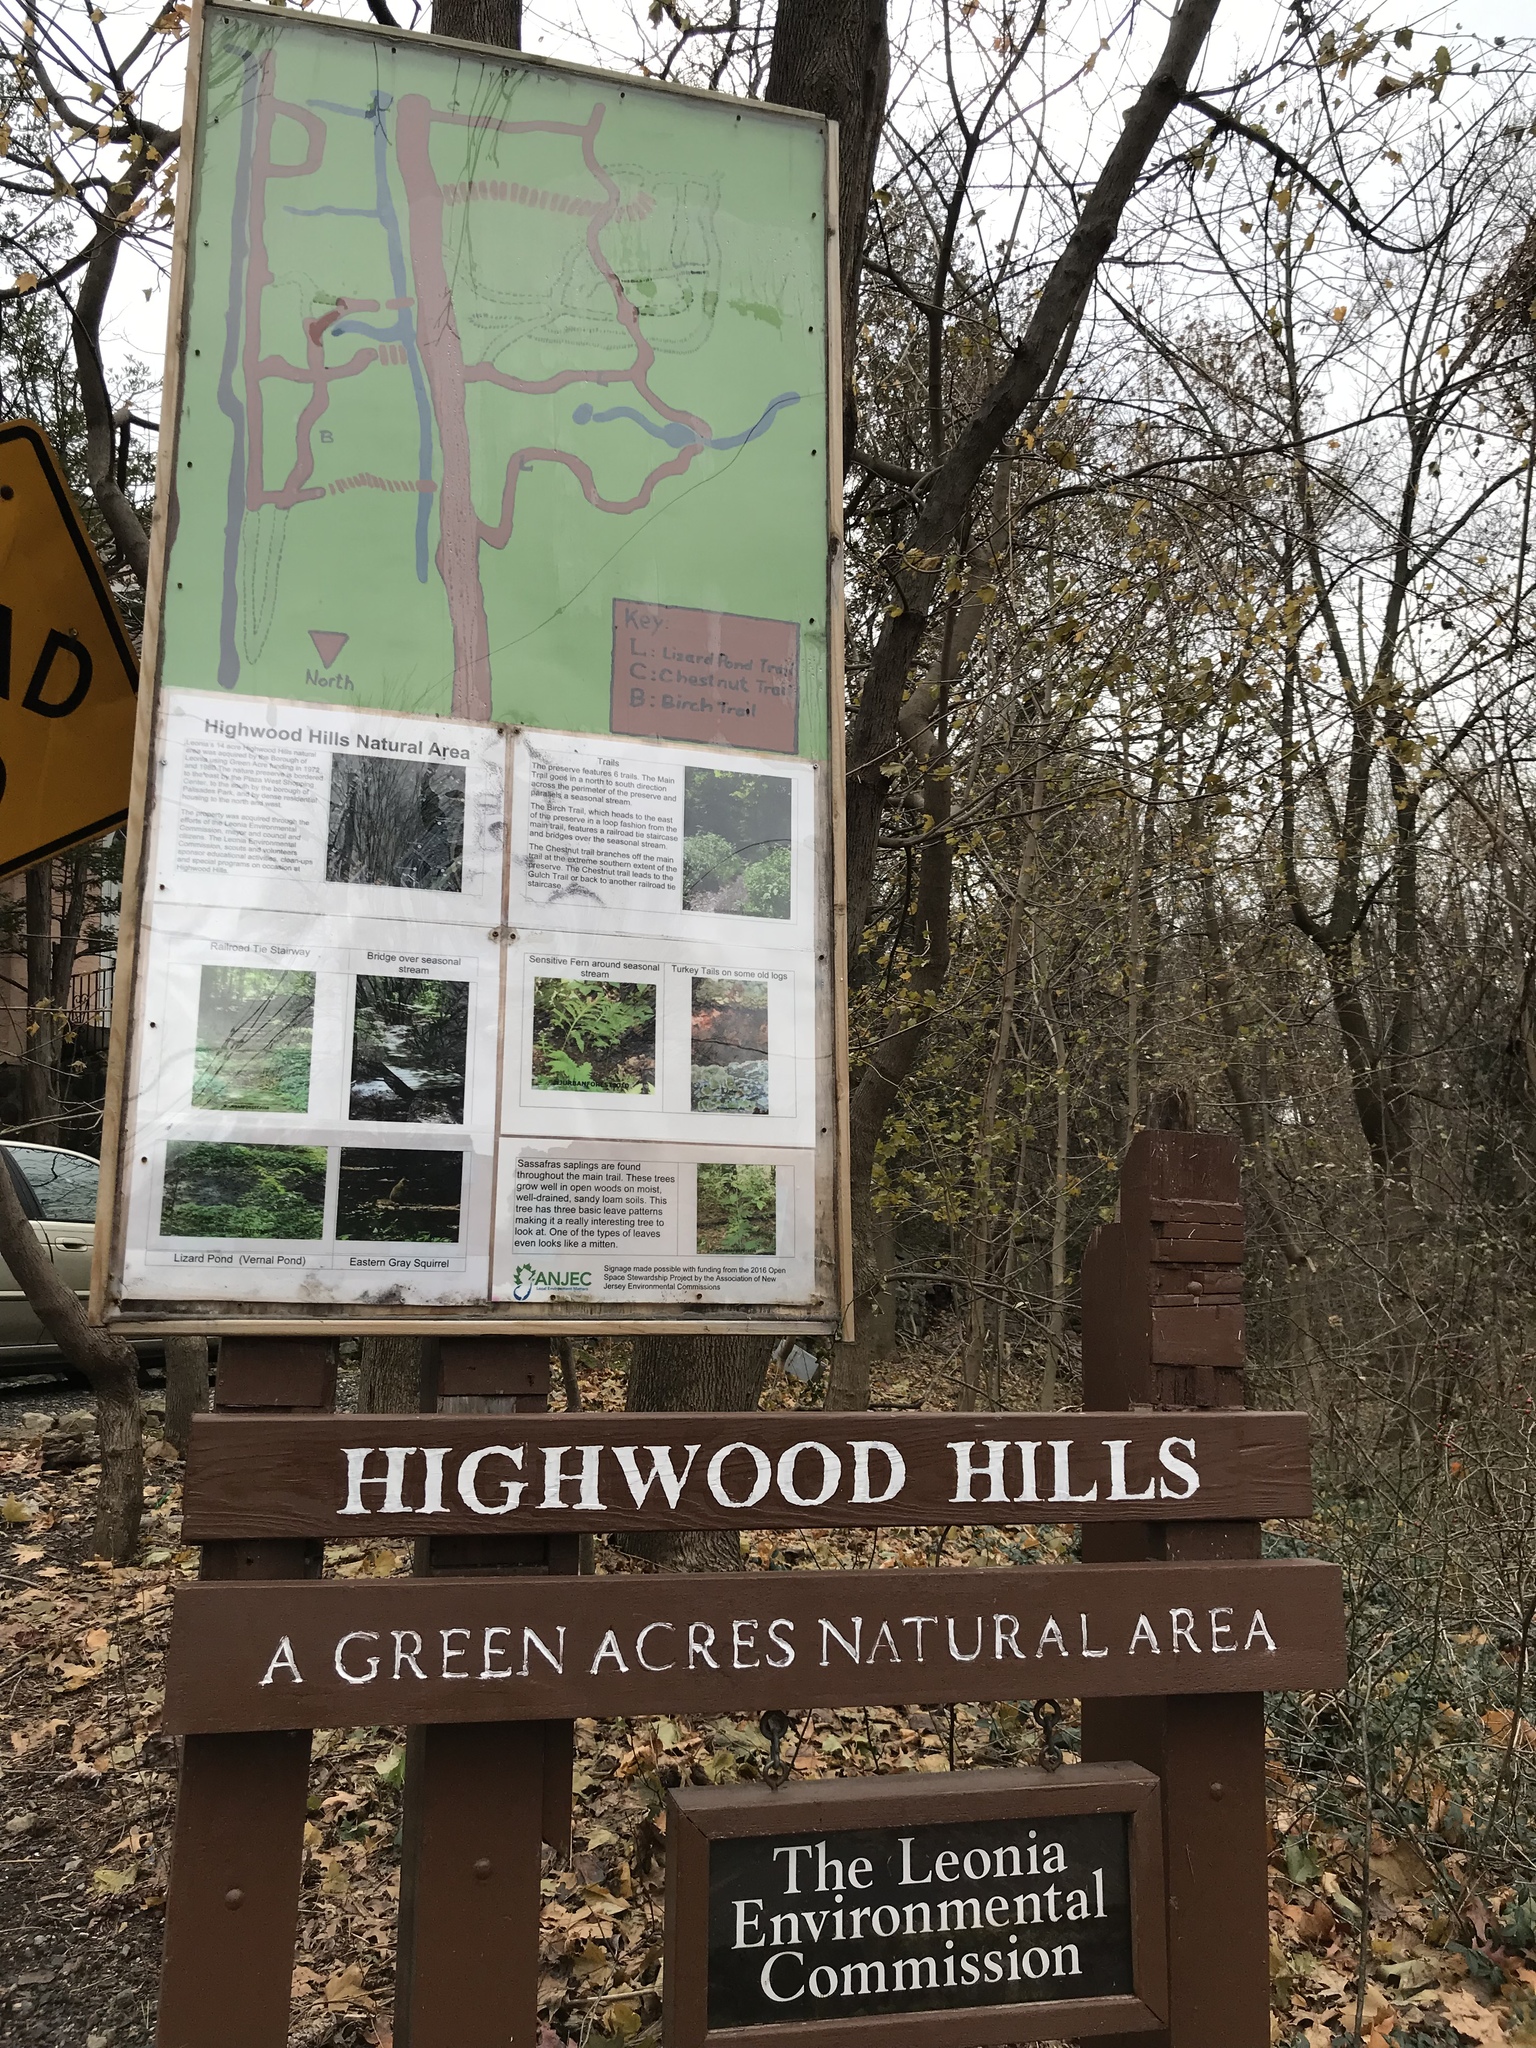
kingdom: Plantae
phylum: Tracheophyta
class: Liliopsida
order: Liliales
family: Smilacaceae
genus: Smilax
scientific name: Smilax glauca
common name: Cat greenbrier
